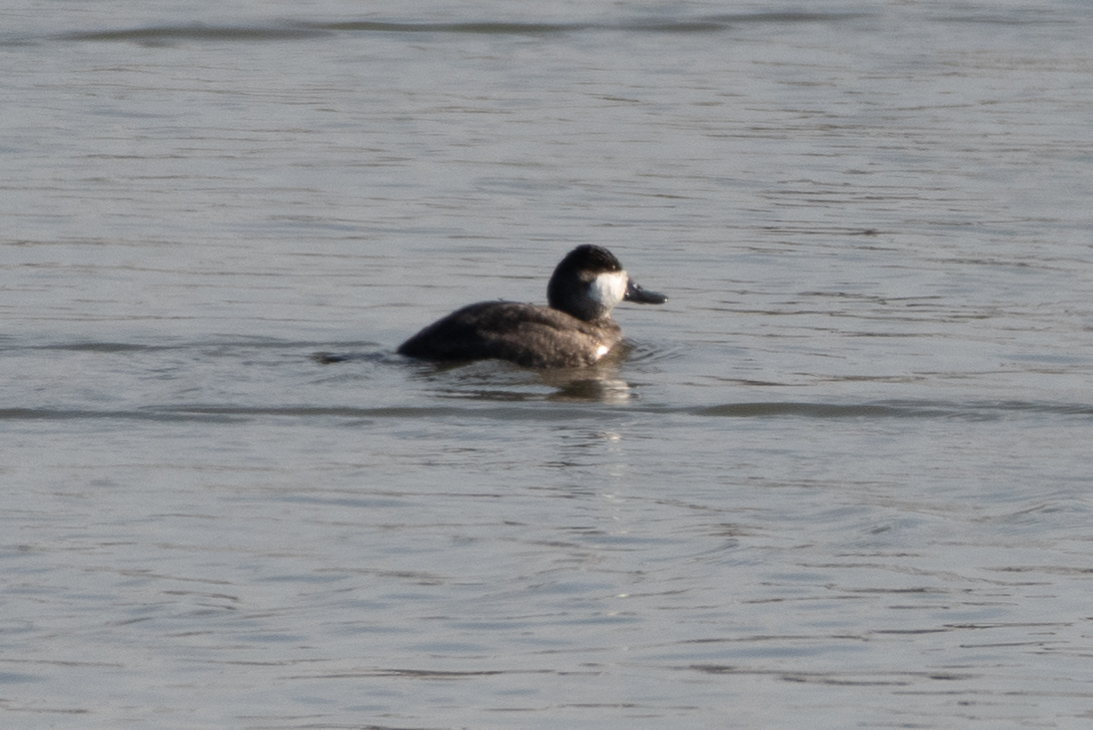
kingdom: Animalia
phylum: Chordata
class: Aves
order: Anseriformes
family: Anatidae
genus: Oxyura
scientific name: Oxyura jamaicensis
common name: Ruddy duck
